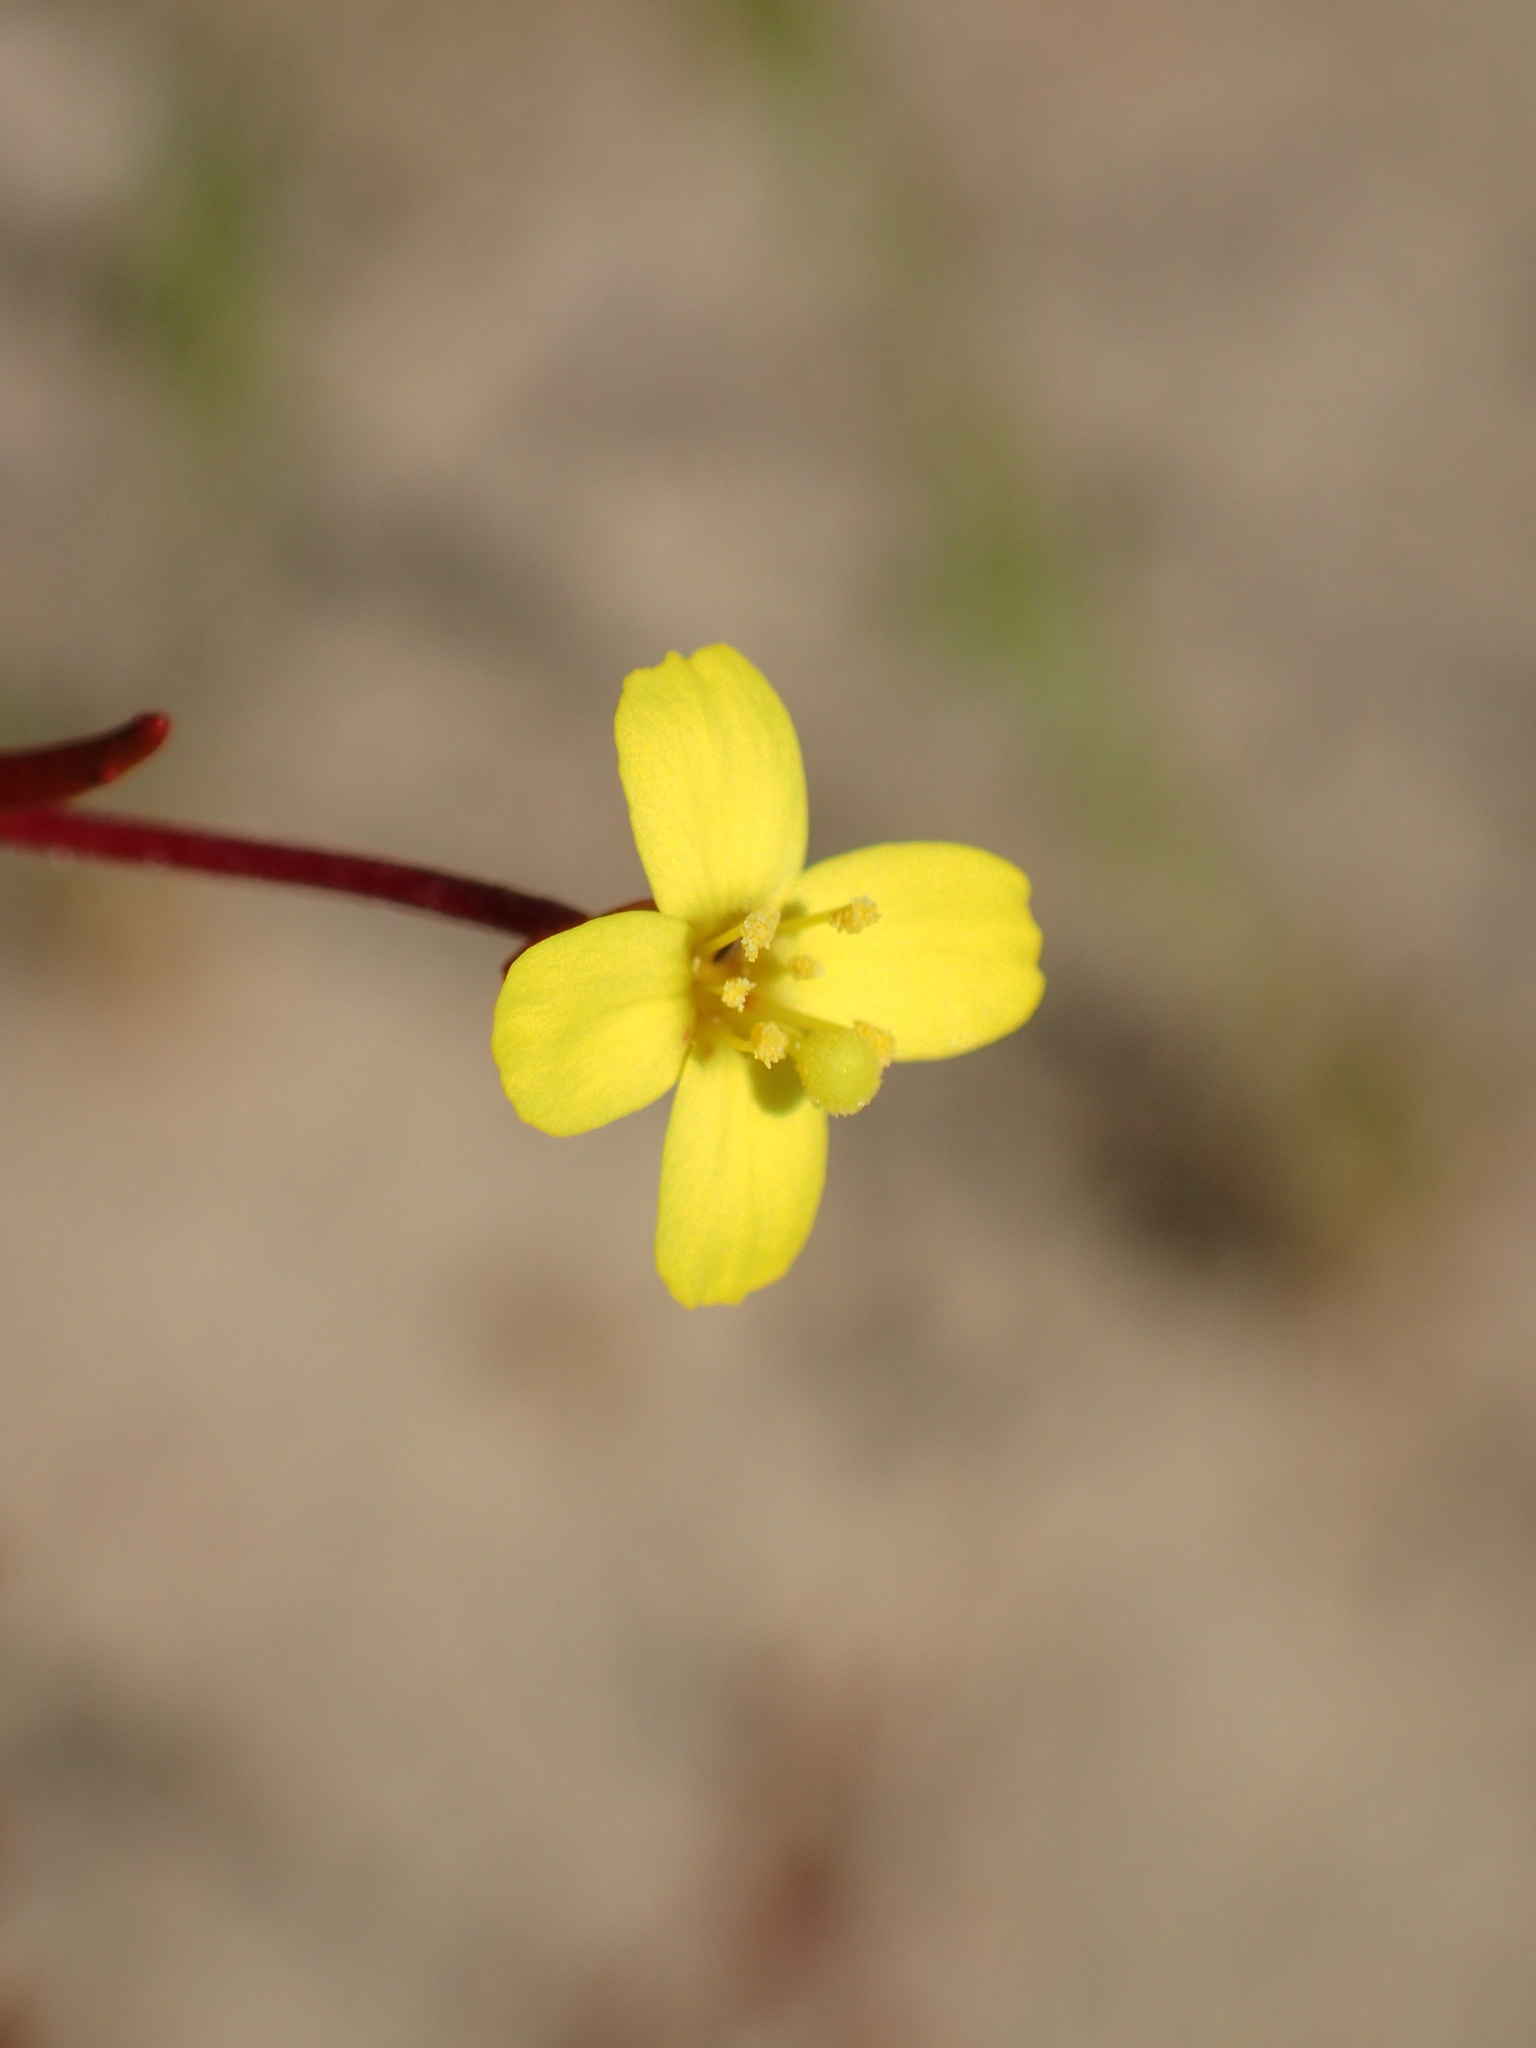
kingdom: Plantae
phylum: Tracheophyta
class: Magnoliopsida
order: Myrtales
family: Onagraceae
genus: Camissonia
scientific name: Camissonia strigulosa
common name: Contorted-primrose
